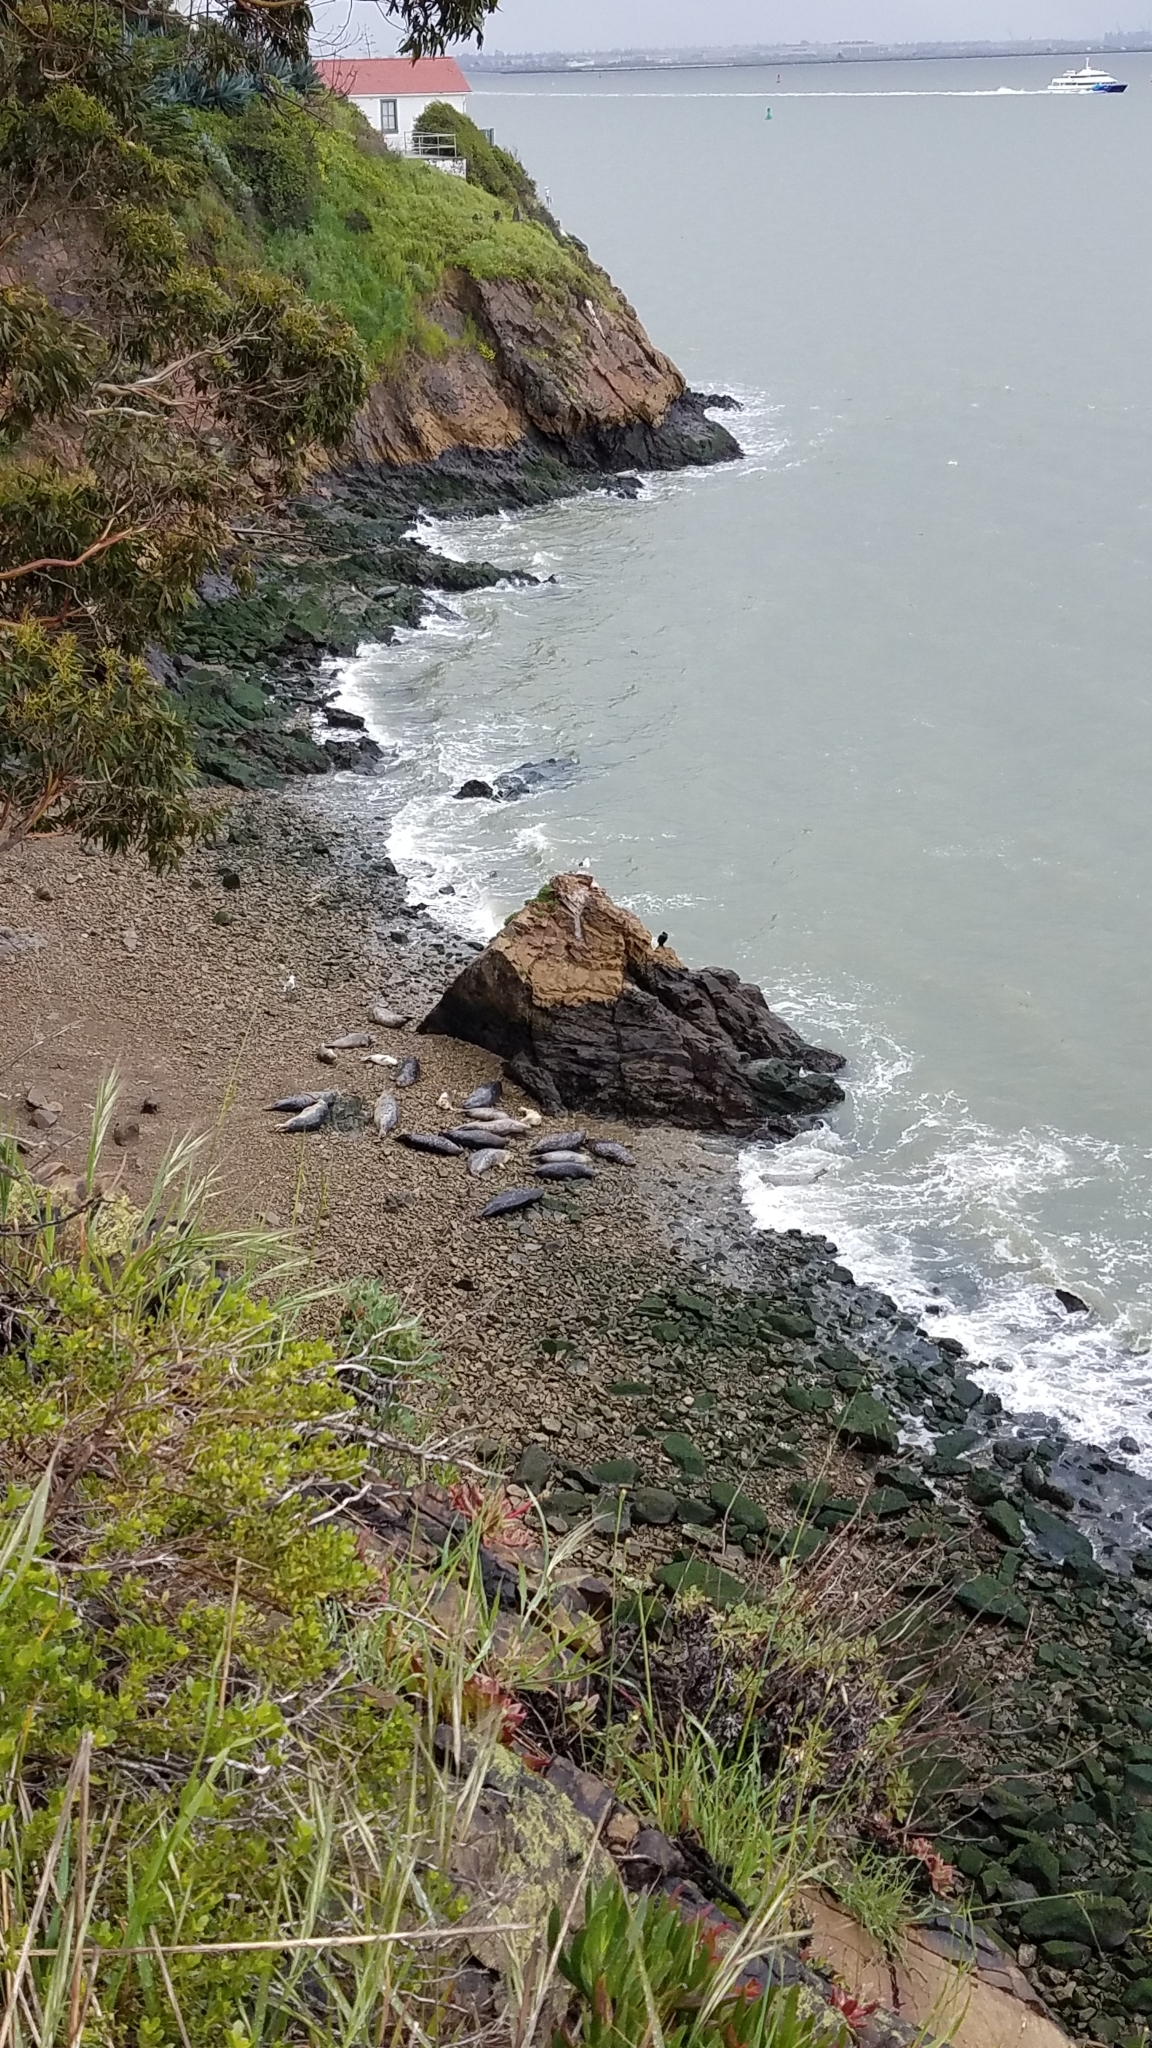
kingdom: Animalia
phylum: Chordata
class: Mammalia
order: Carnivora
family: Phocidae
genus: Phoca
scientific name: Phoca vitulina
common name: Harbor seal
